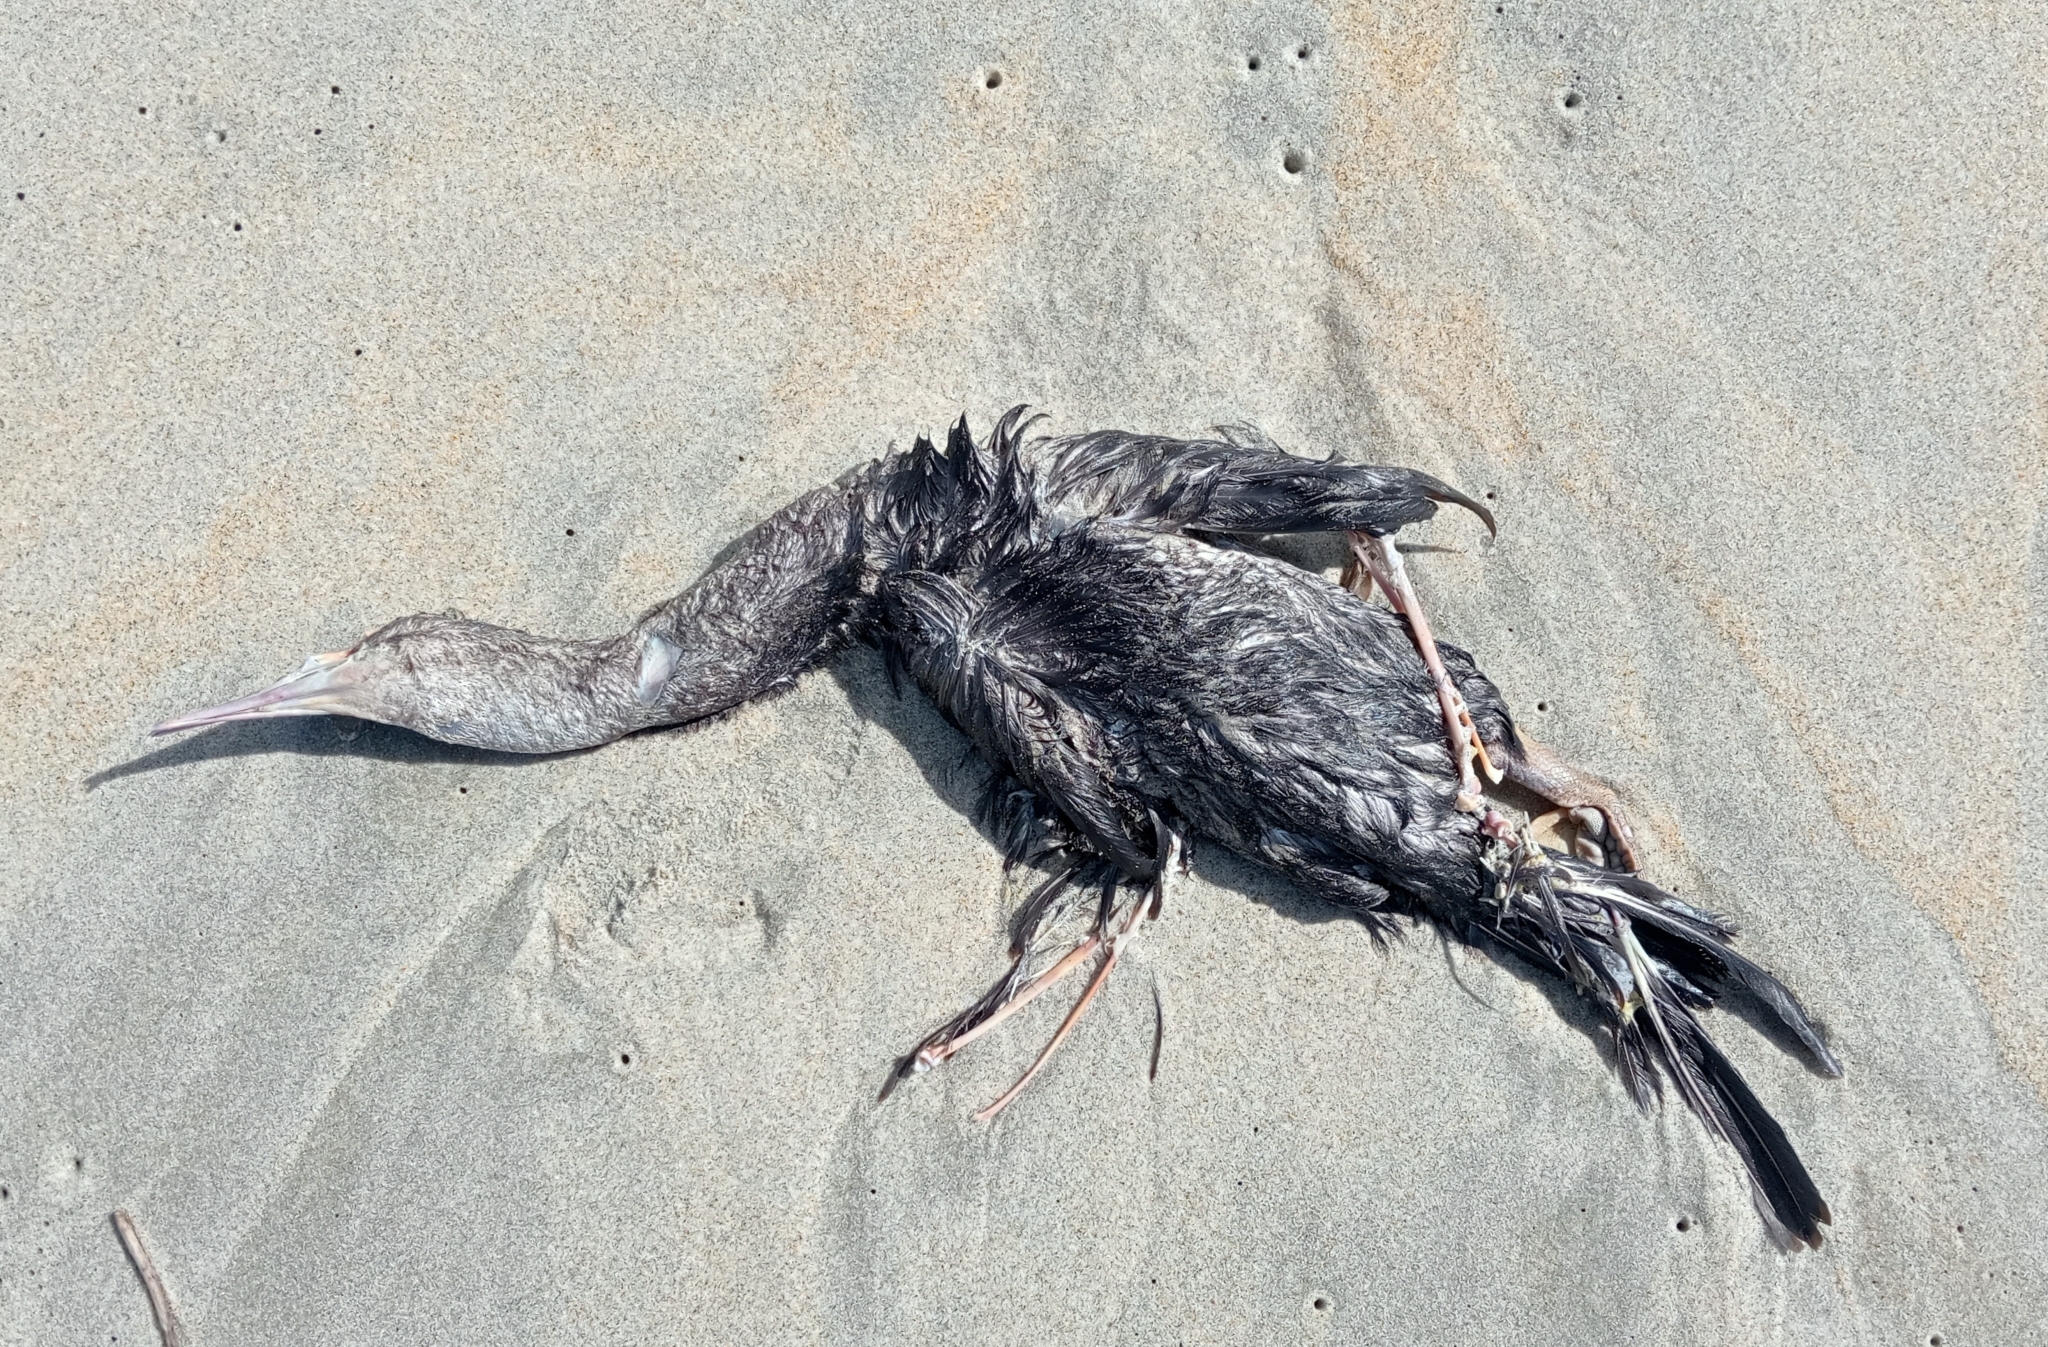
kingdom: Animalia
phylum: Chordata
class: Aves
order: Suliformes
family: Phalacrocoracidae
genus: Phalacrocorax
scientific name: Phalacrocorax punctatus
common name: Spotted shag
